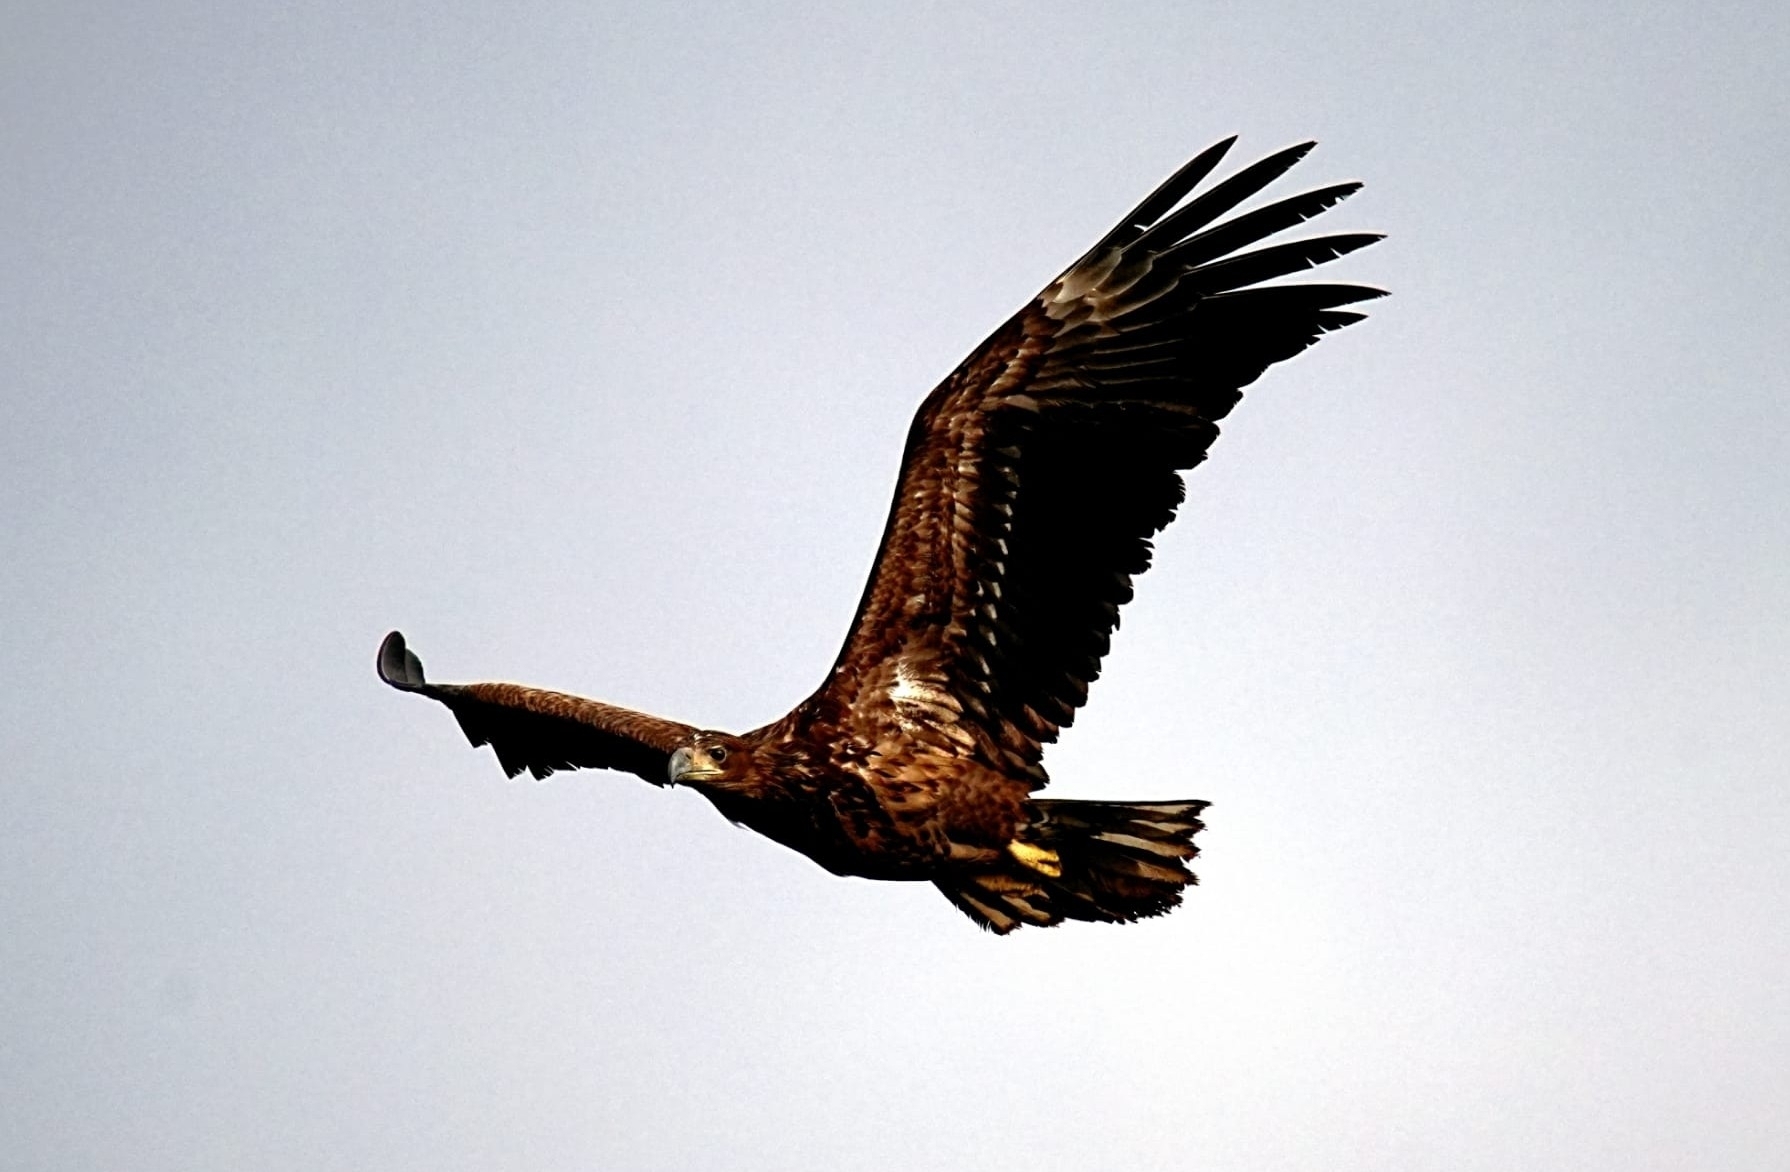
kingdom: Animalia
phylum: Chordata
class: Aves
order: Accipitriformes
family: Accipitridae
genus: Haliaeetus
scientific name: Haliaeetus albicilla
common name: White-tailed eagle
